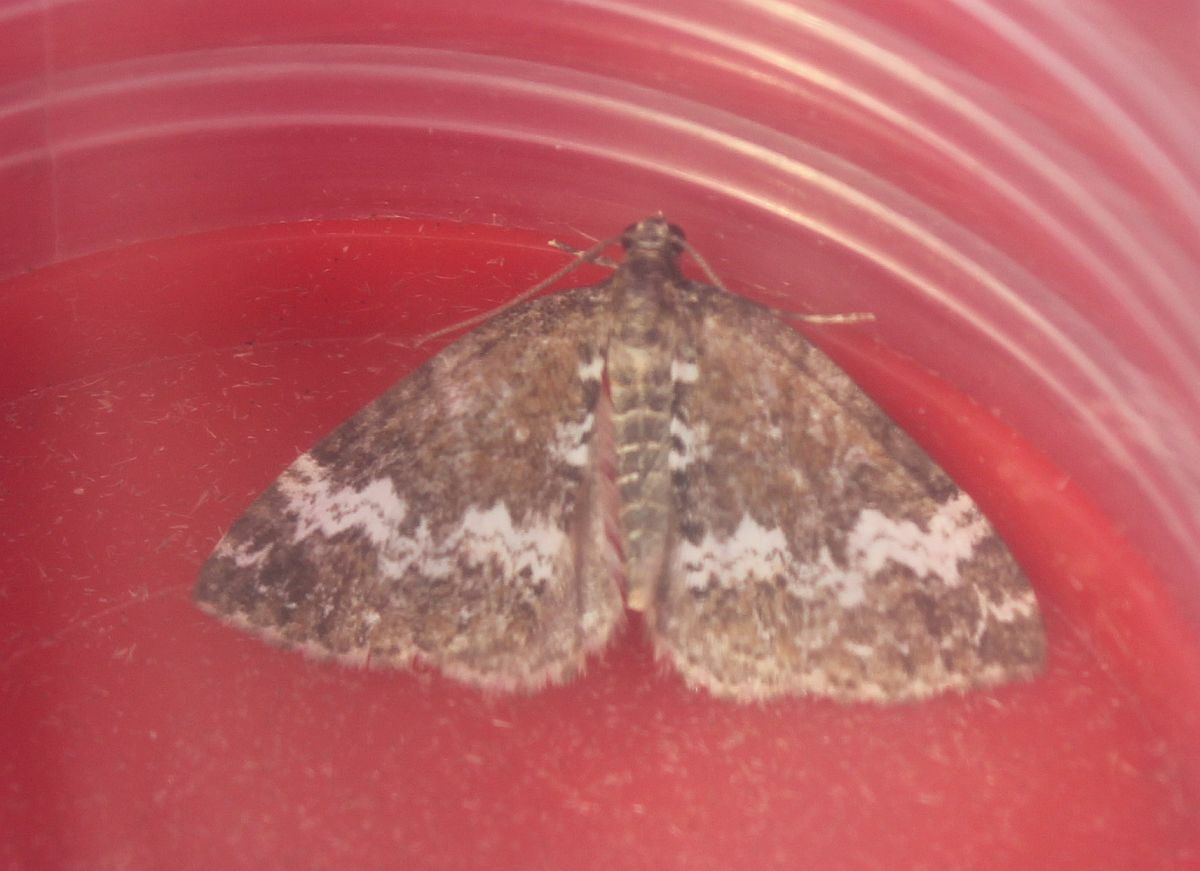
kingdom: Animalia
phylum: Arthropoda
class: Insecta
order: Lepidoptera
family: Geometridae
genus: Perizoma
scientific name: Perizoma alchemillata
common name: Small rivulet
